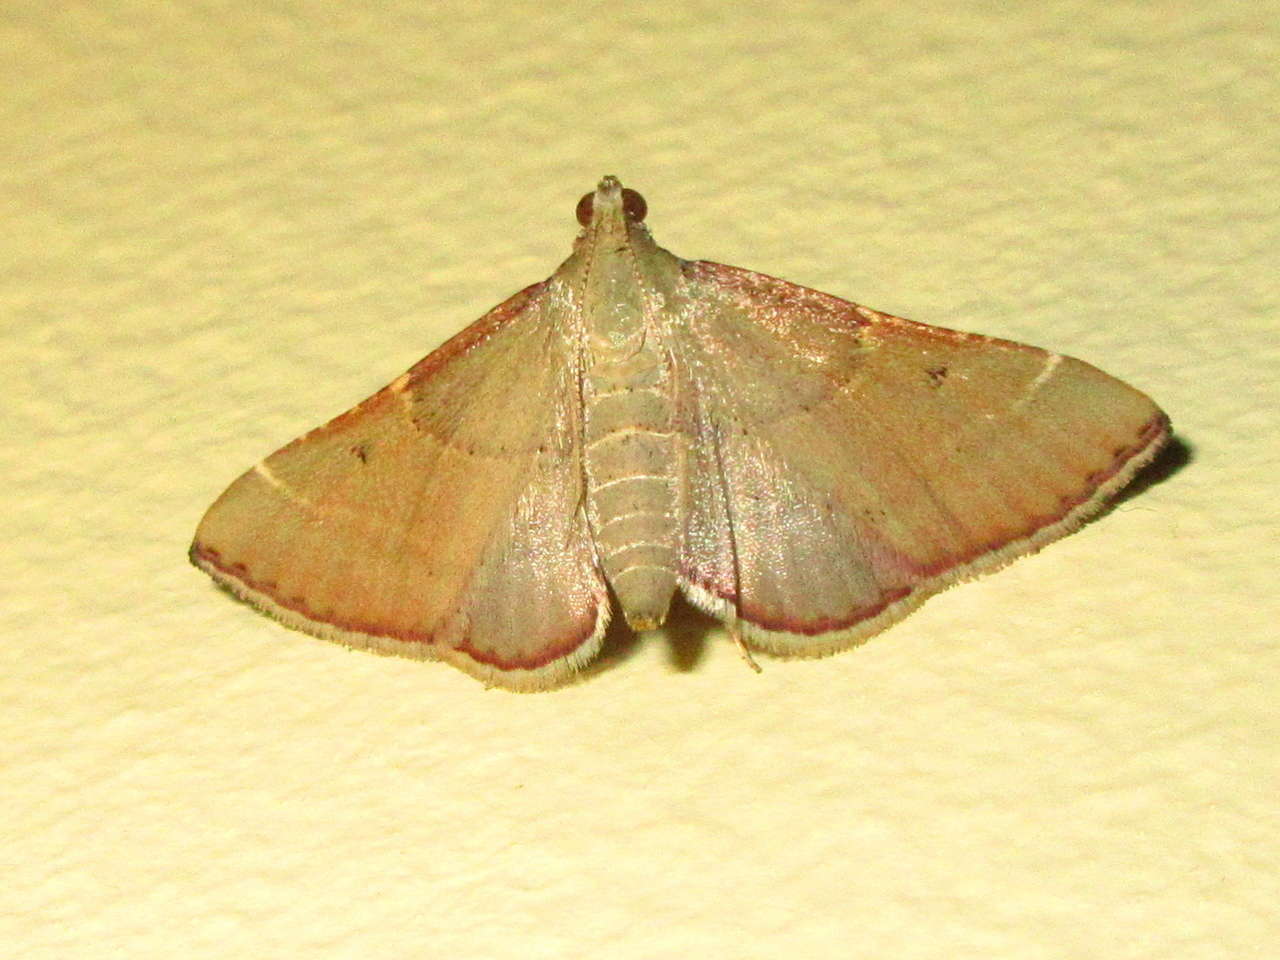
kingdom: Animalia
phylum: Arthropoda
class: Insecta
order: Lepidoptera
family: Pyralidae
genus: Endosimilis
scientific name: Endosimilis stilbealis
